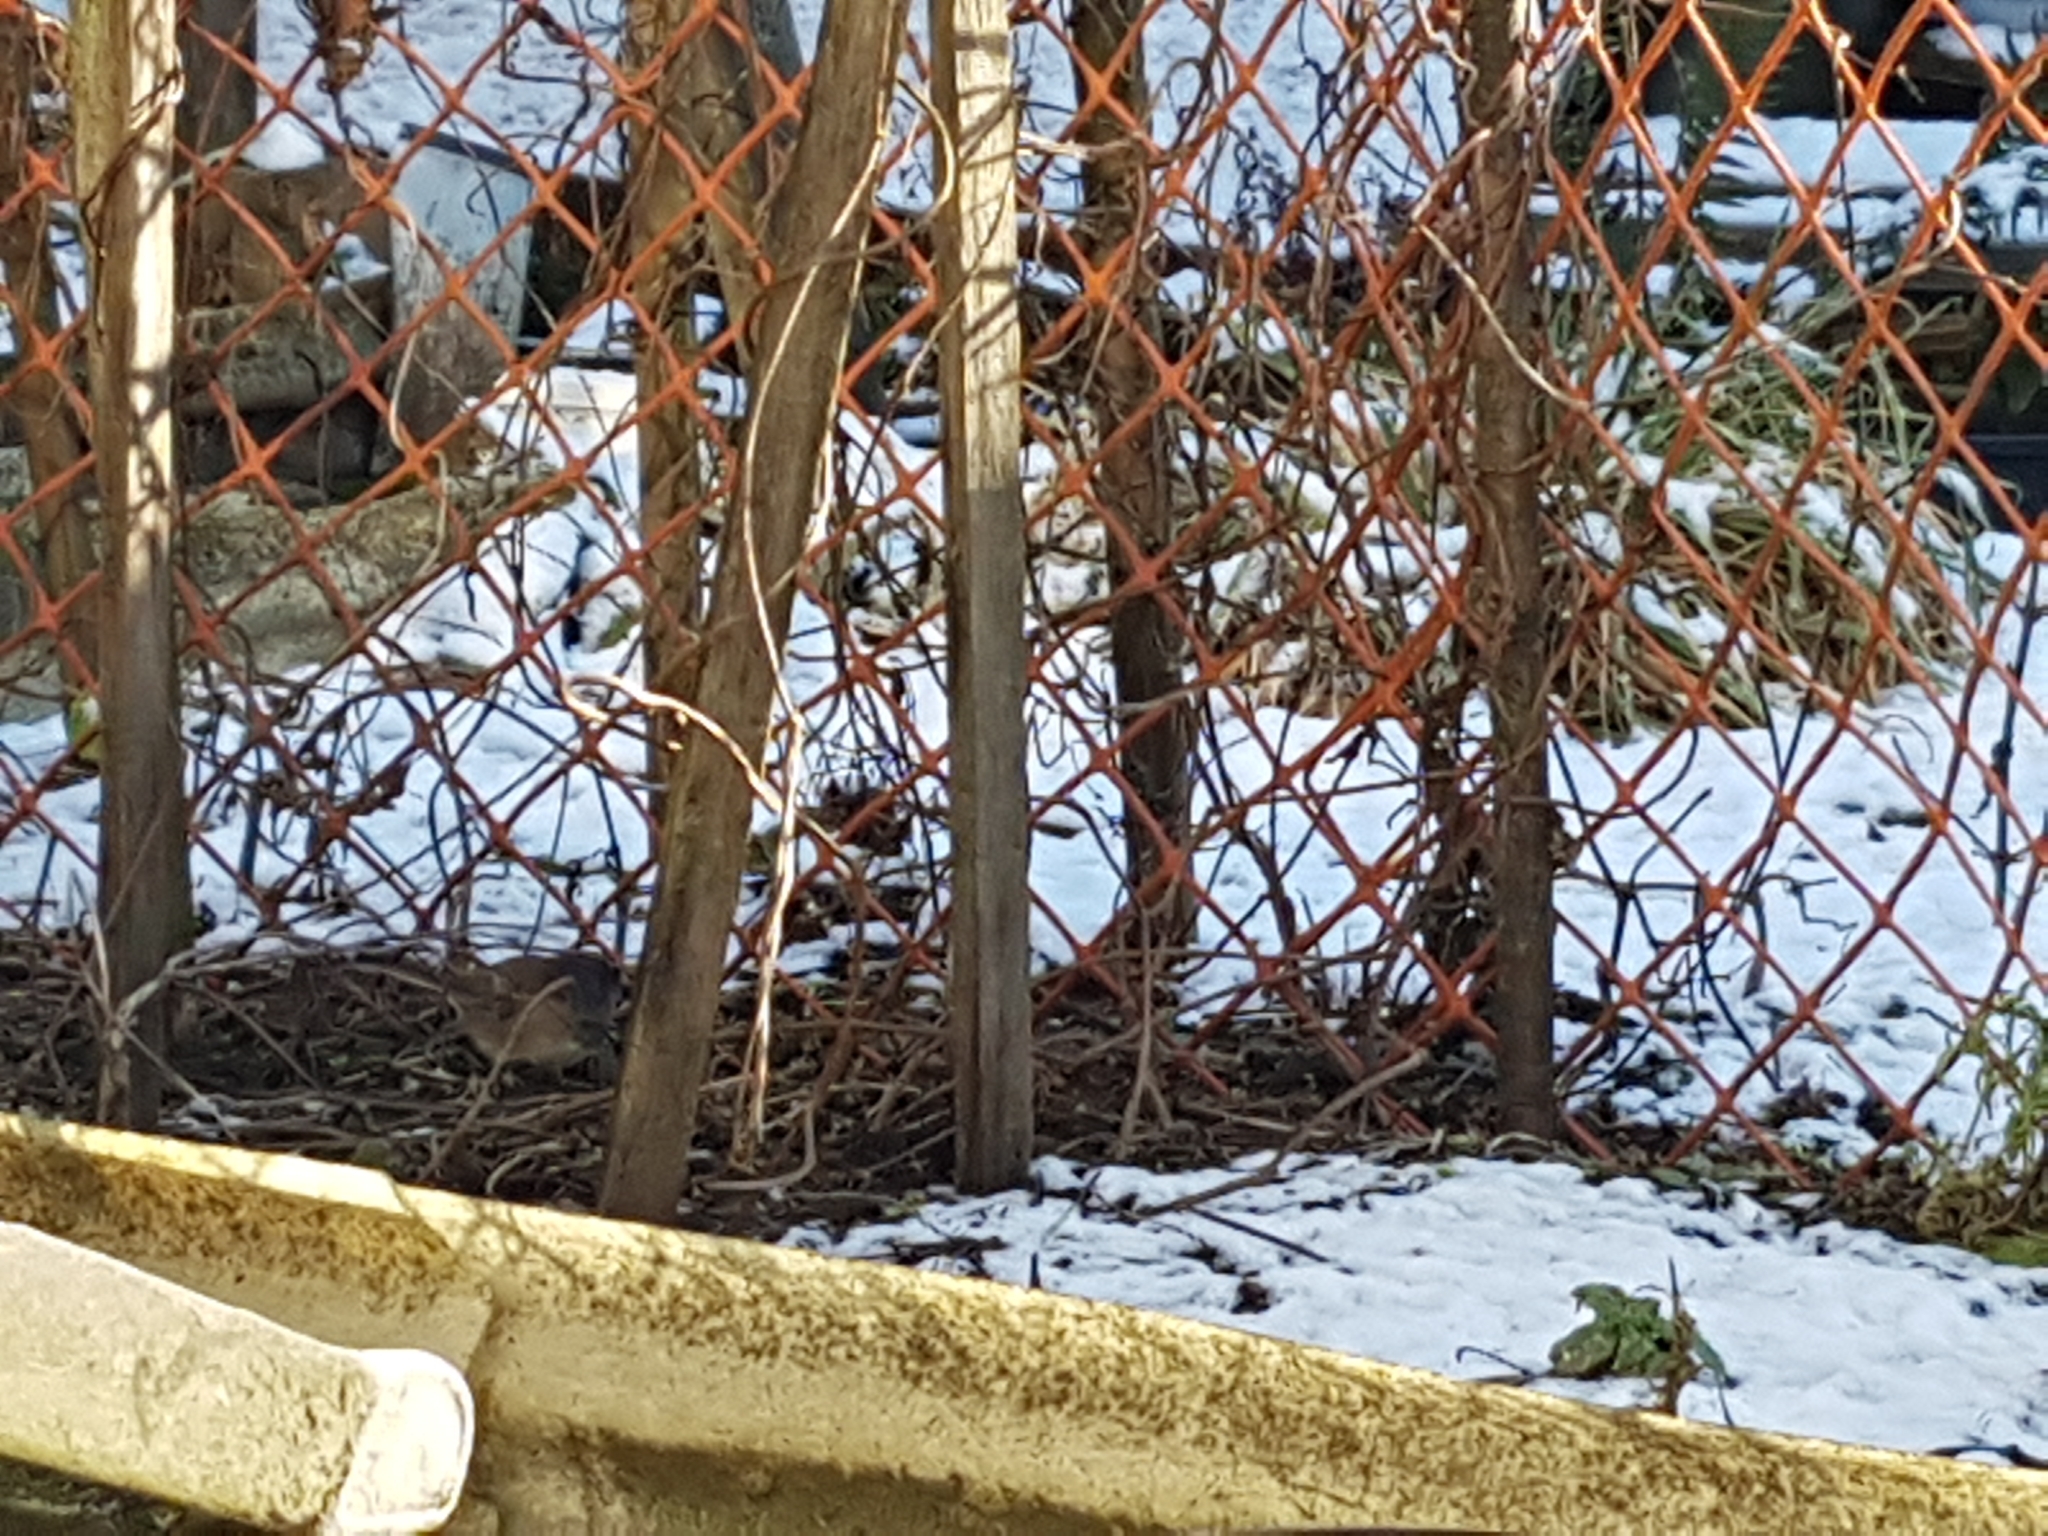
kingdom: Animalia
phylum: Chordata
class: Aves
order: Passeriformes
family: Passerellidae
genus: Junco
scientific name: Junco hyemalis
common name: Dark-eyed junco
